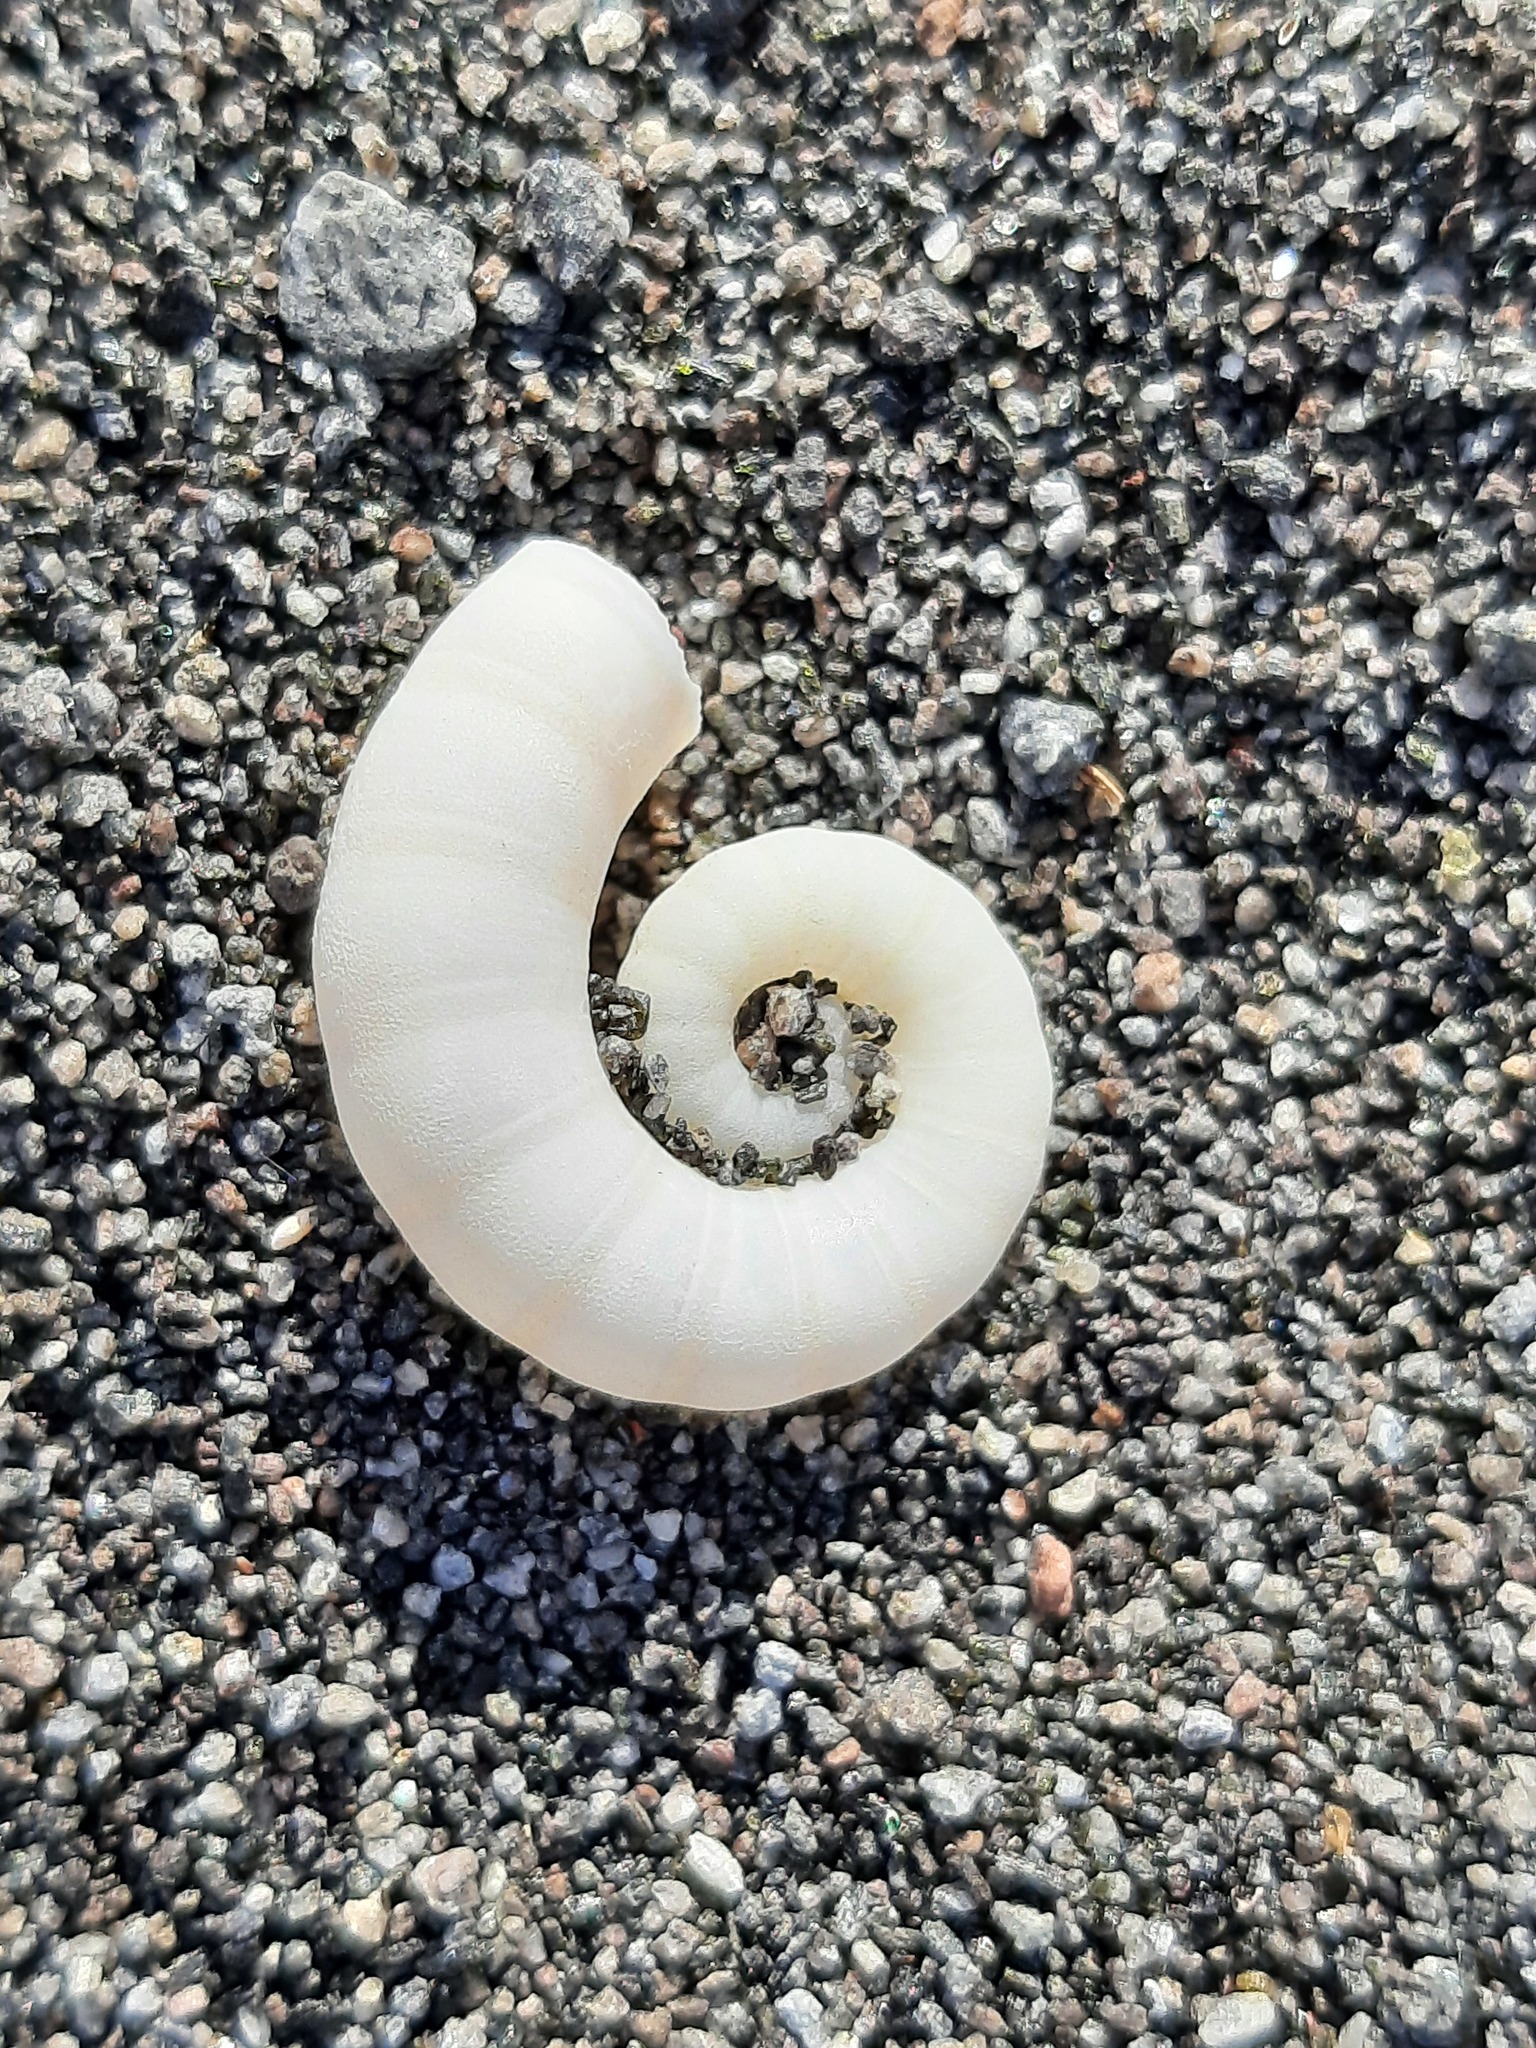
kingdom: Animalia
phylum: Mollusca
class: Cephalopoda
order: Spirulida
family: Spirulidae
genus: Spirula
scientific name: Spirula spirula
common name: Ram's horn squid
